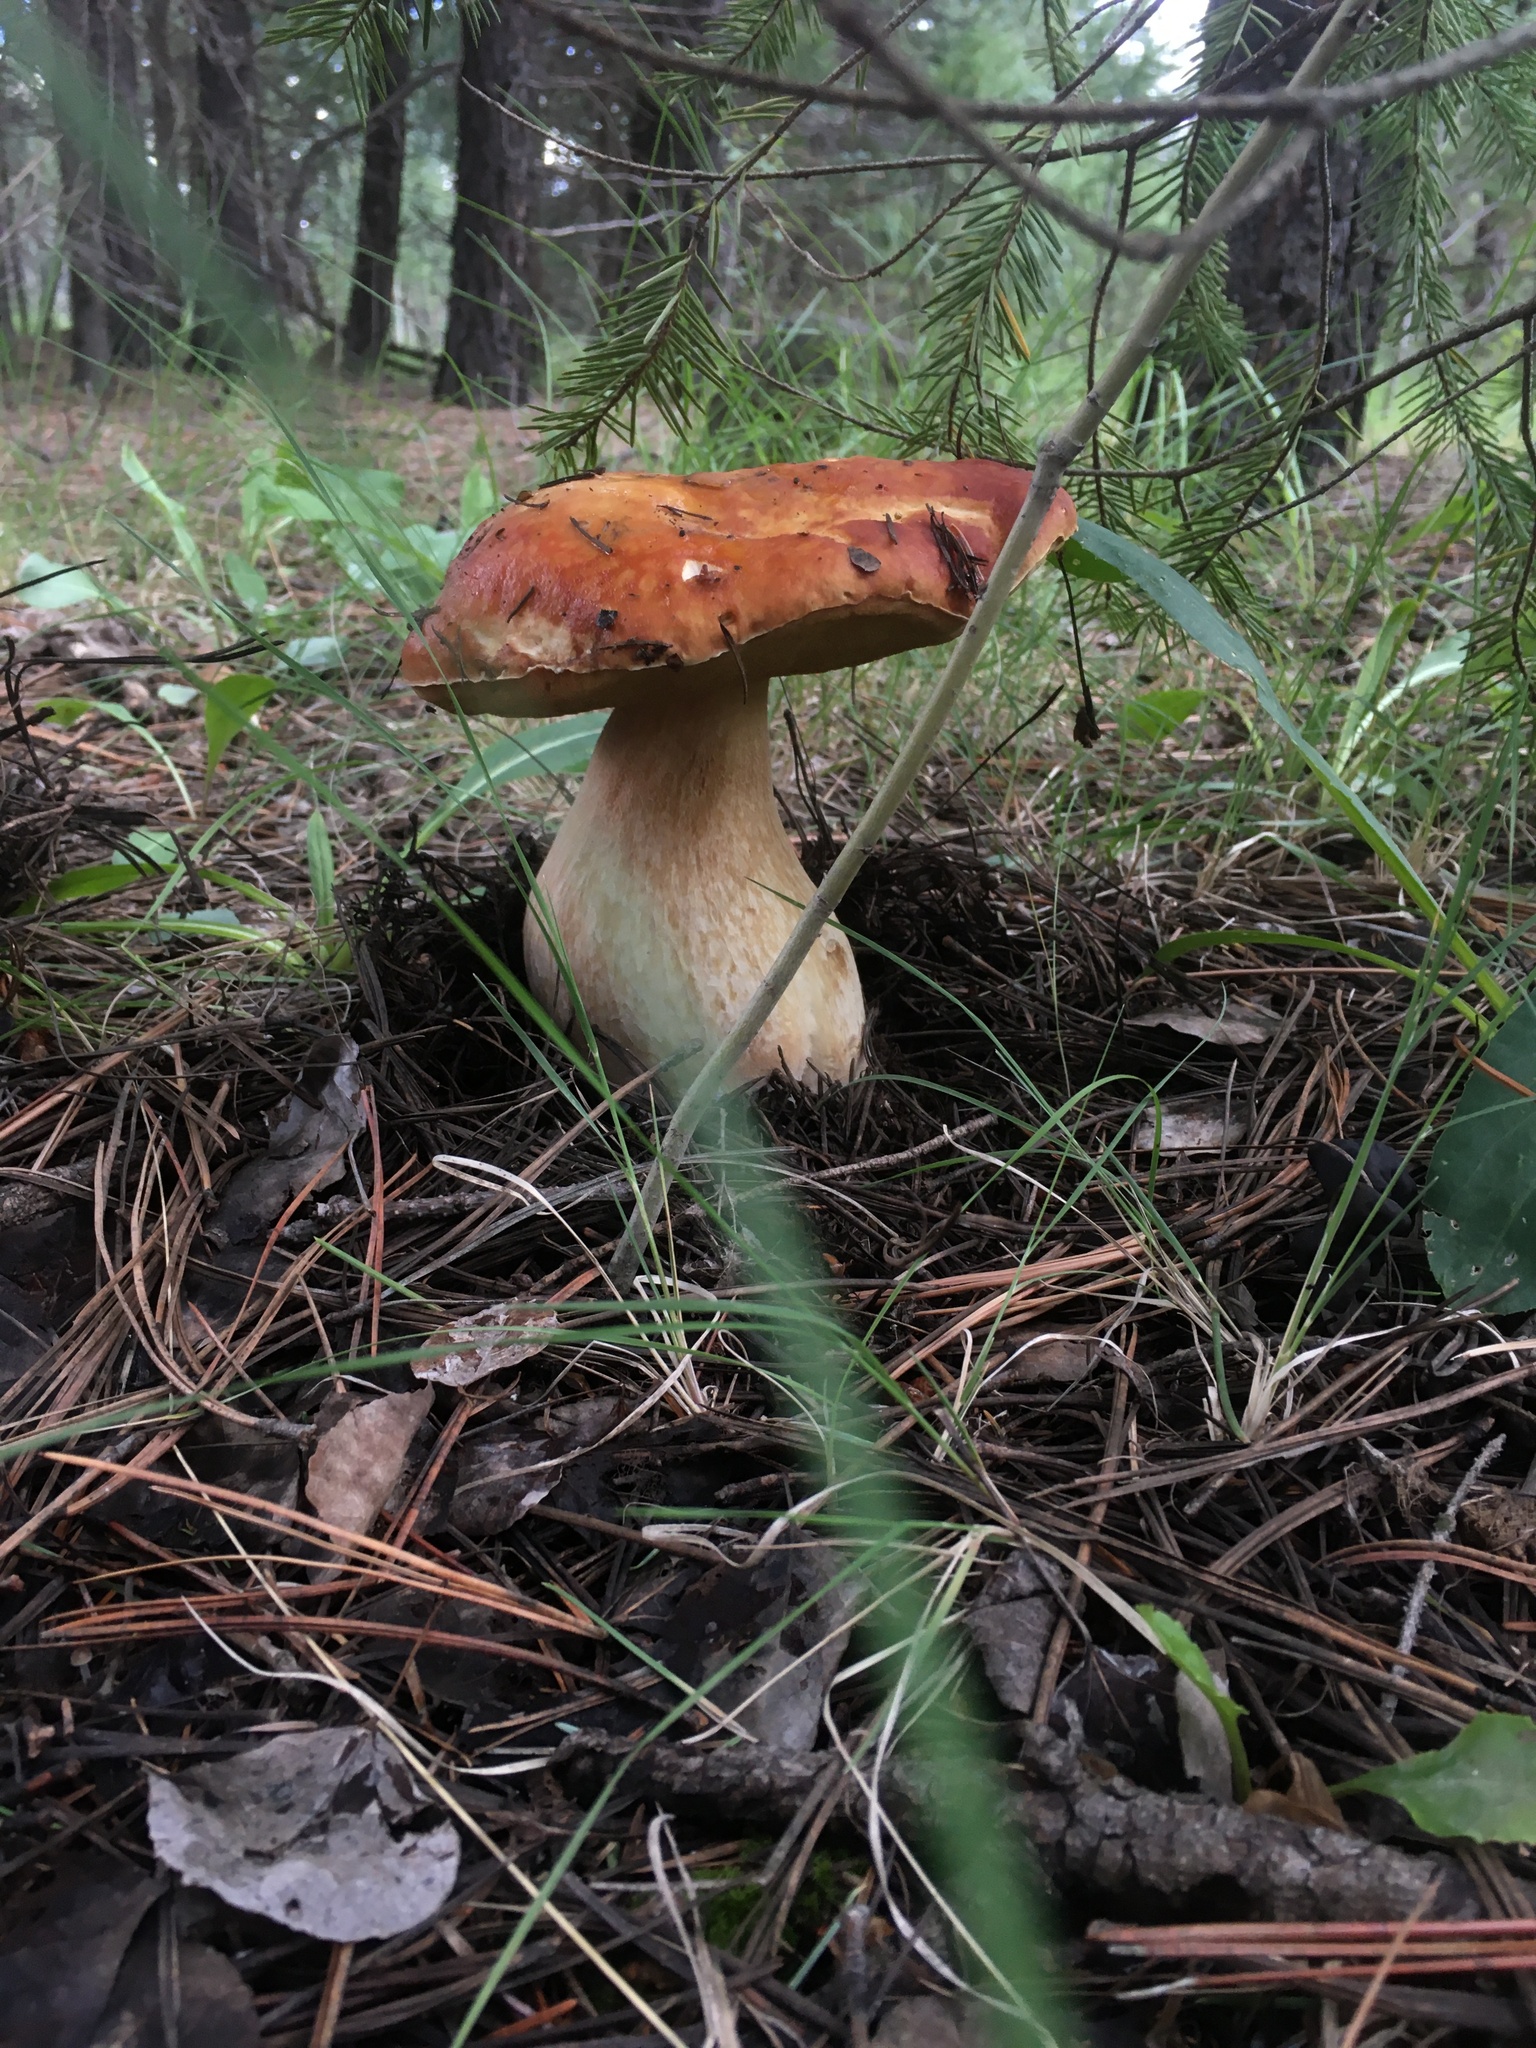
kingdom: Fungi
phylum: Basidiomycota
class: Agaricomycetes
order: Boletales
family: Boletaceae
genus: Boletus
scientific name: Boletus rubriceps
